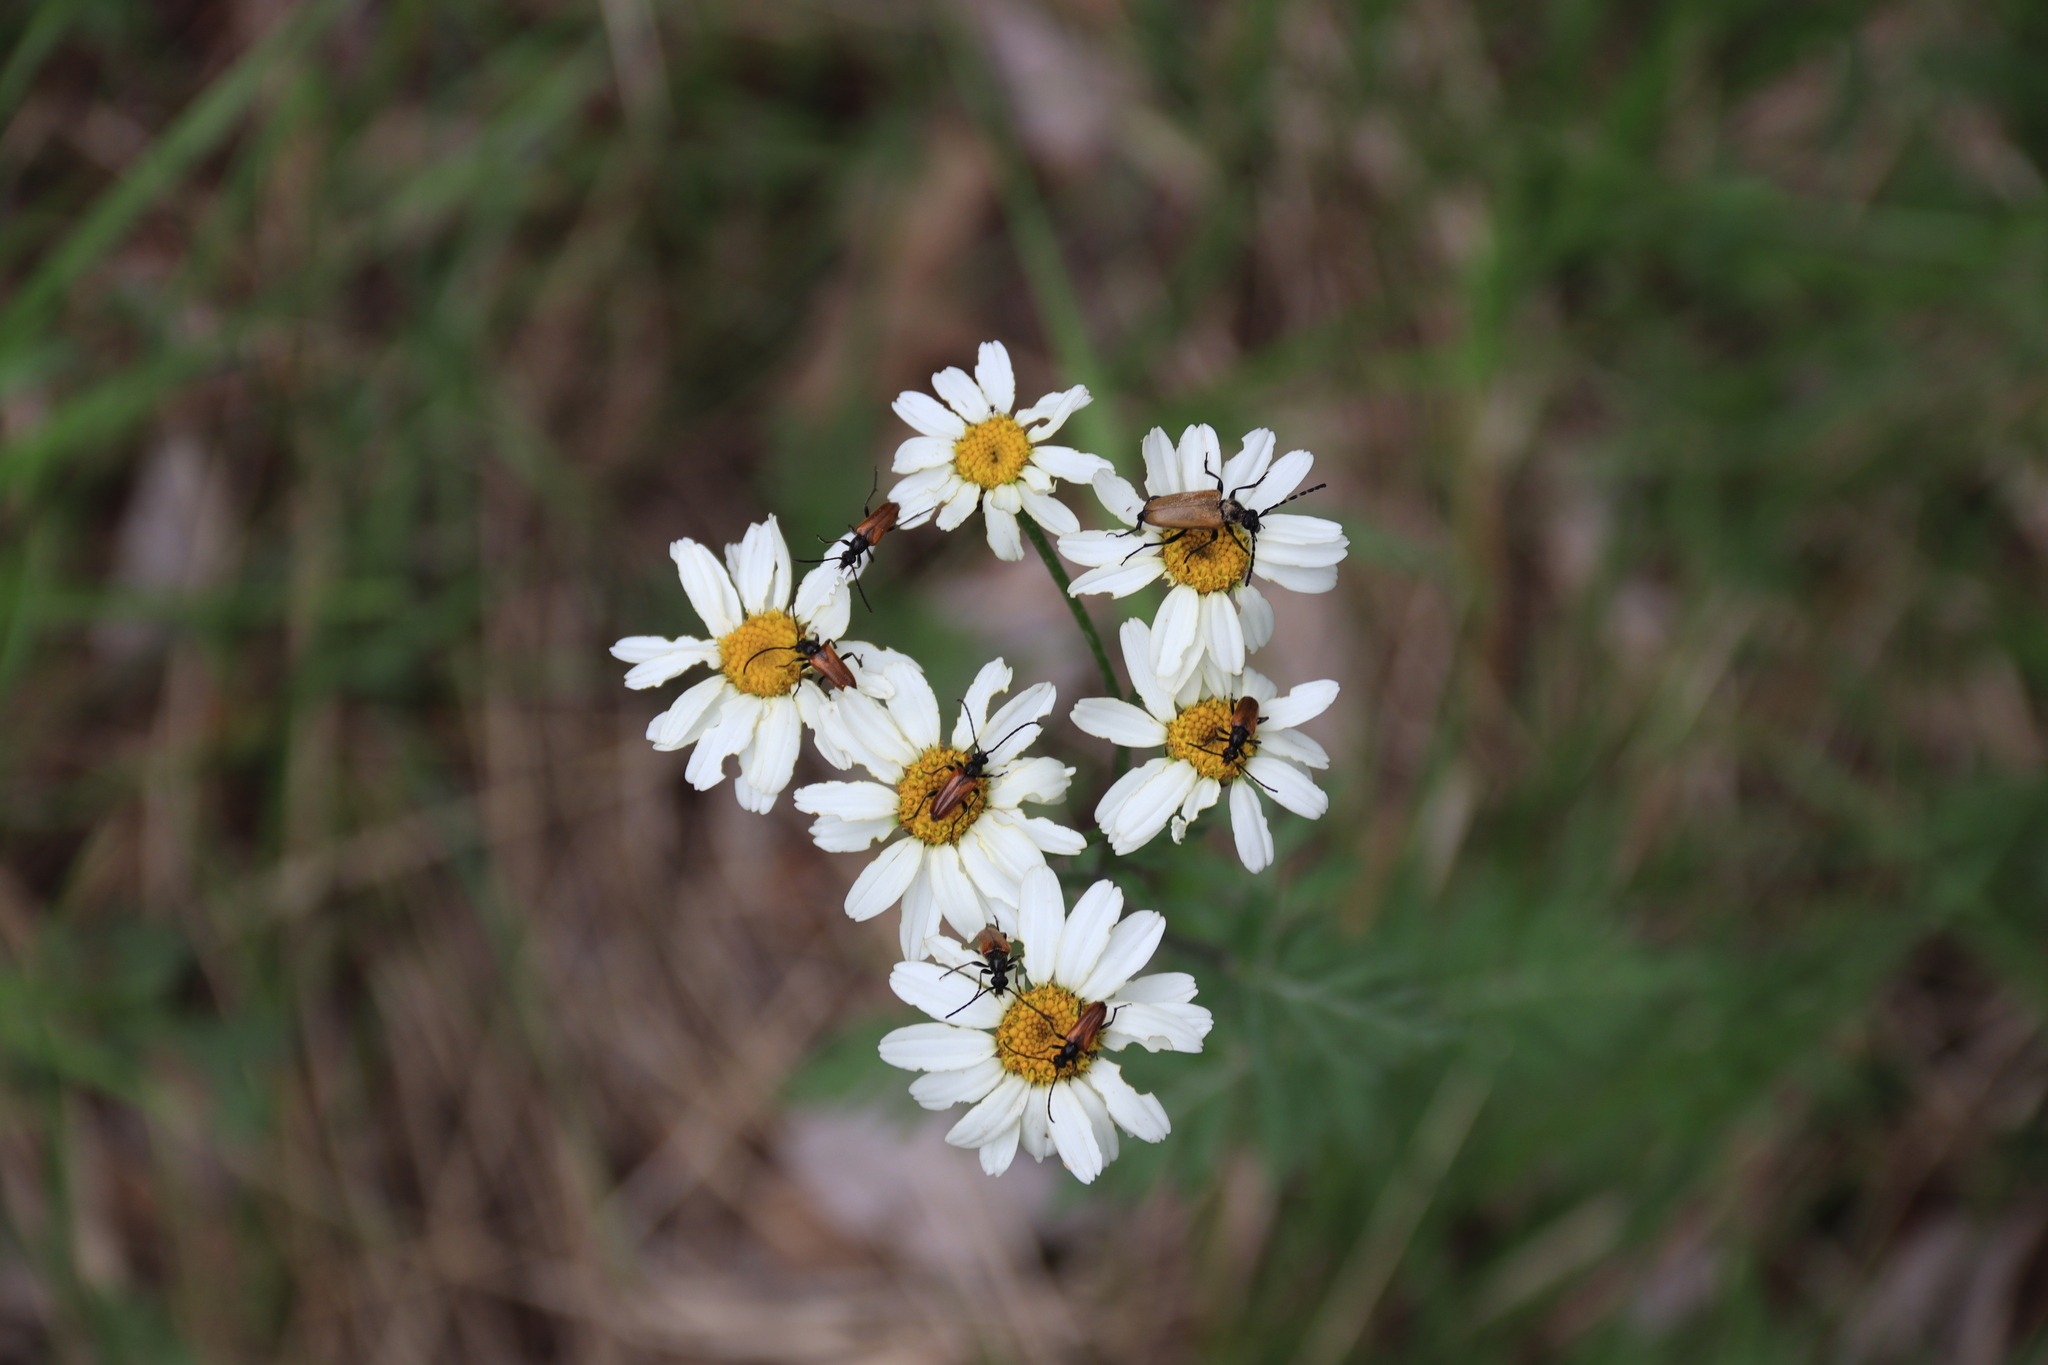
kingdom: Plantae
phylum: Tracheophyta
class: Magnoliopsida
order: Asterales
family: Asteraceae
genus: Tanacetum
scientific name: Tanacetum corymbosum
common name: Scentless feverfew
